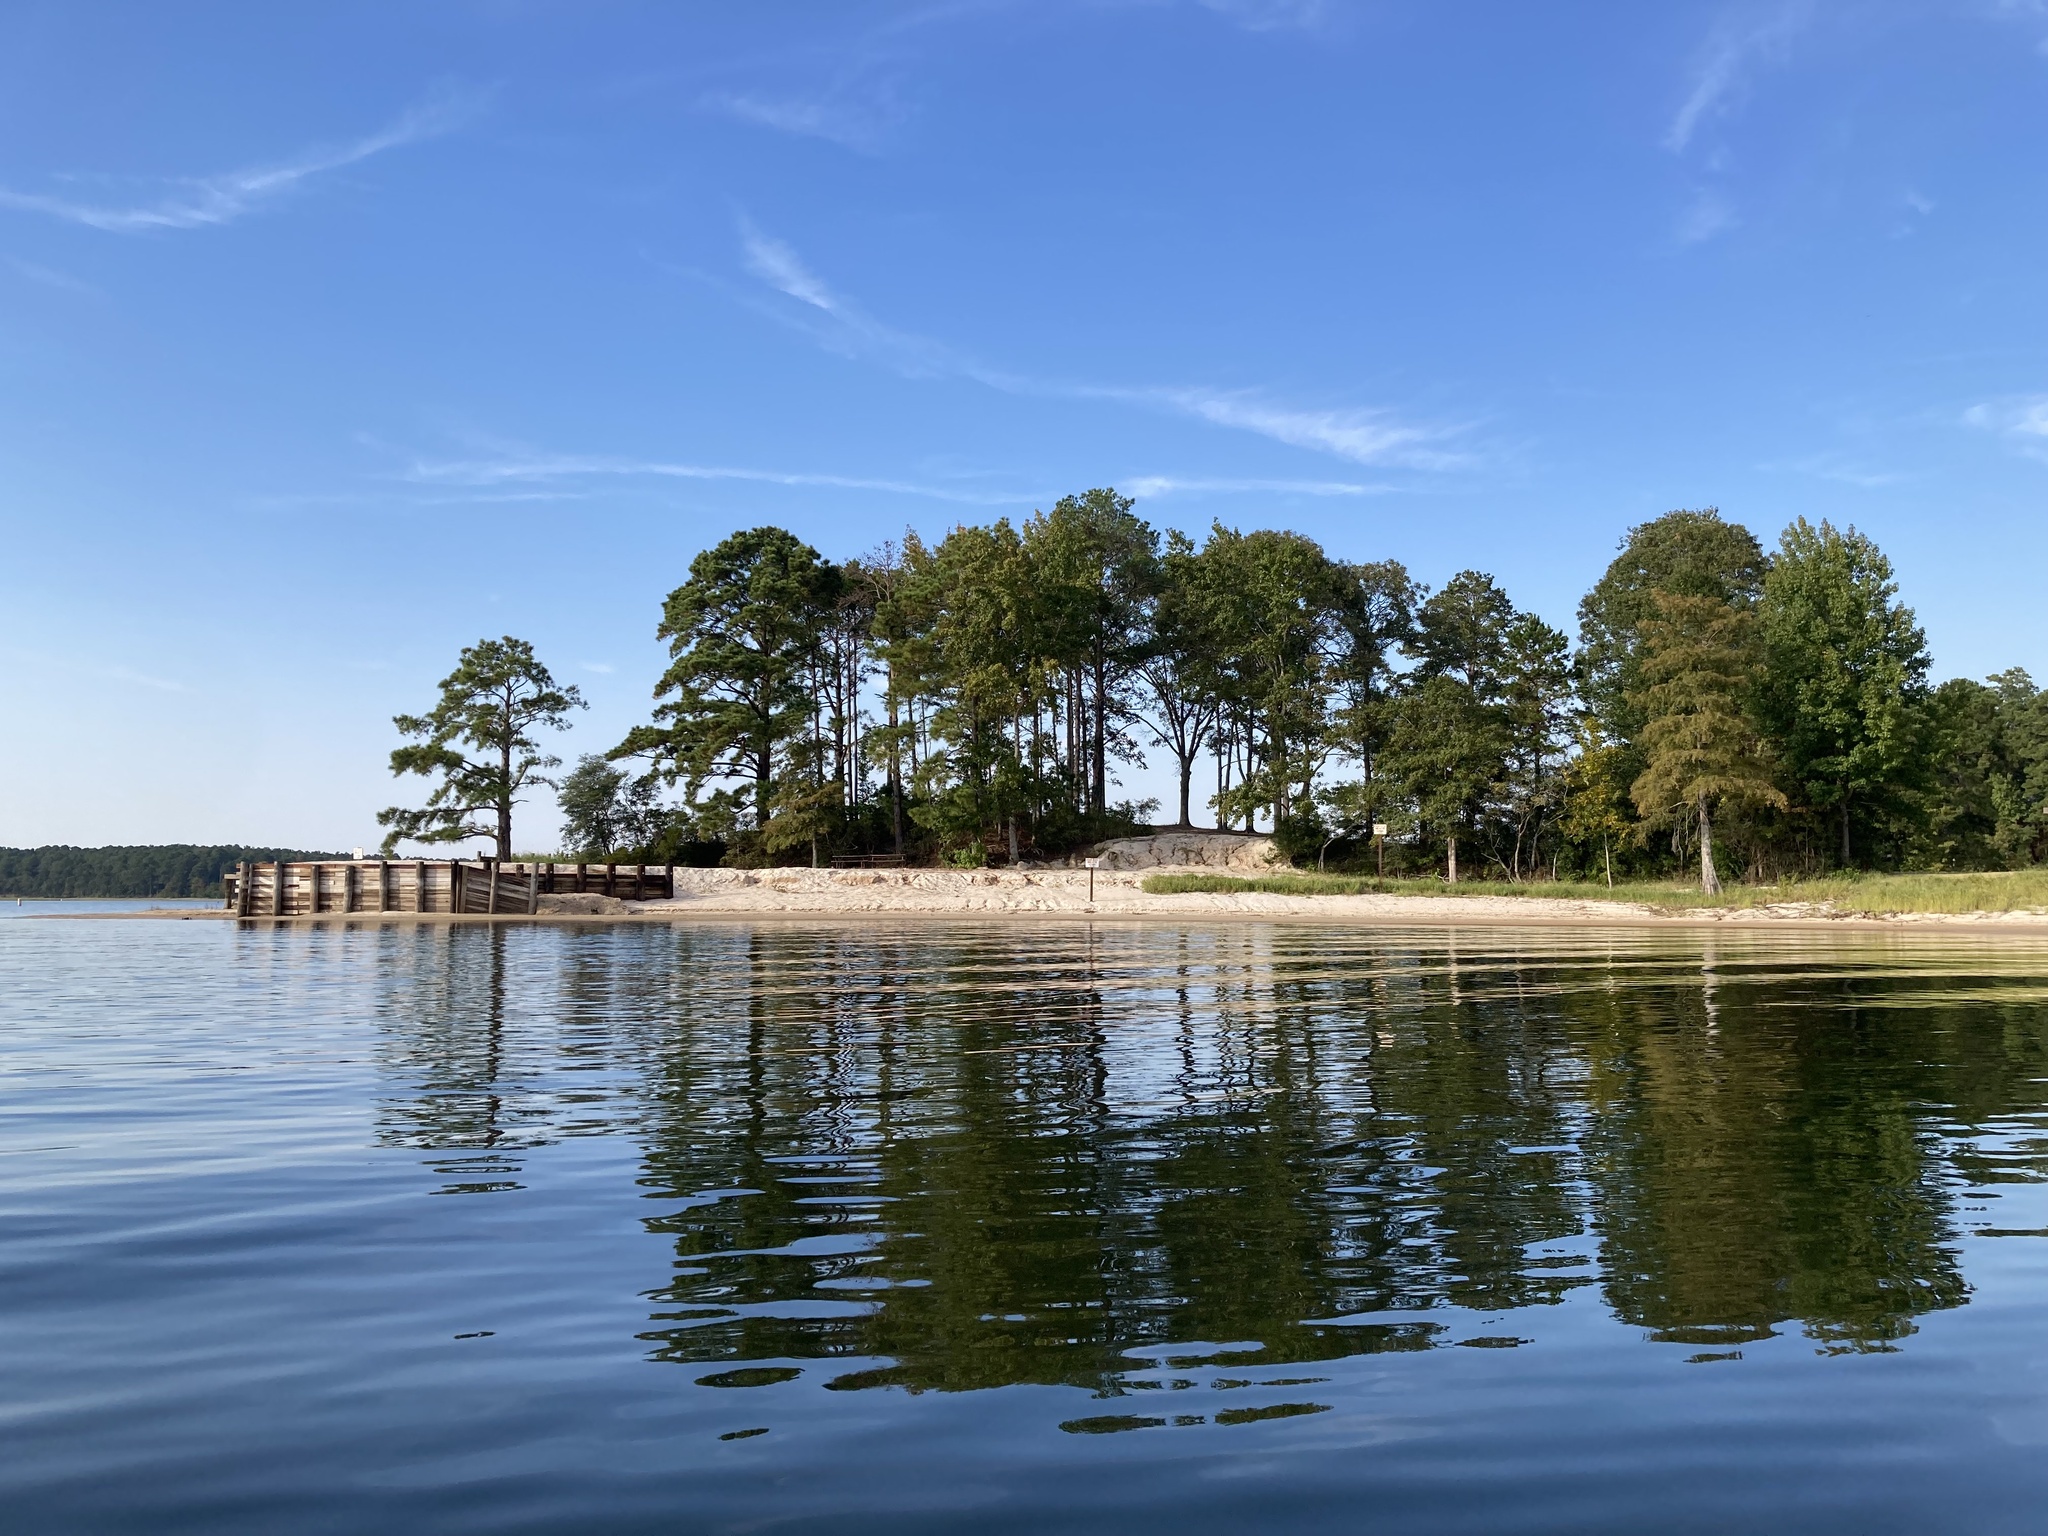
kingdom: Plantae
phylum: Tracheophyta
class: Pinopsida
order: Pinales
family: Cupressaceae
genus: Taxodium
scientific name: Taxodium distichum
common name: Bald cypress
